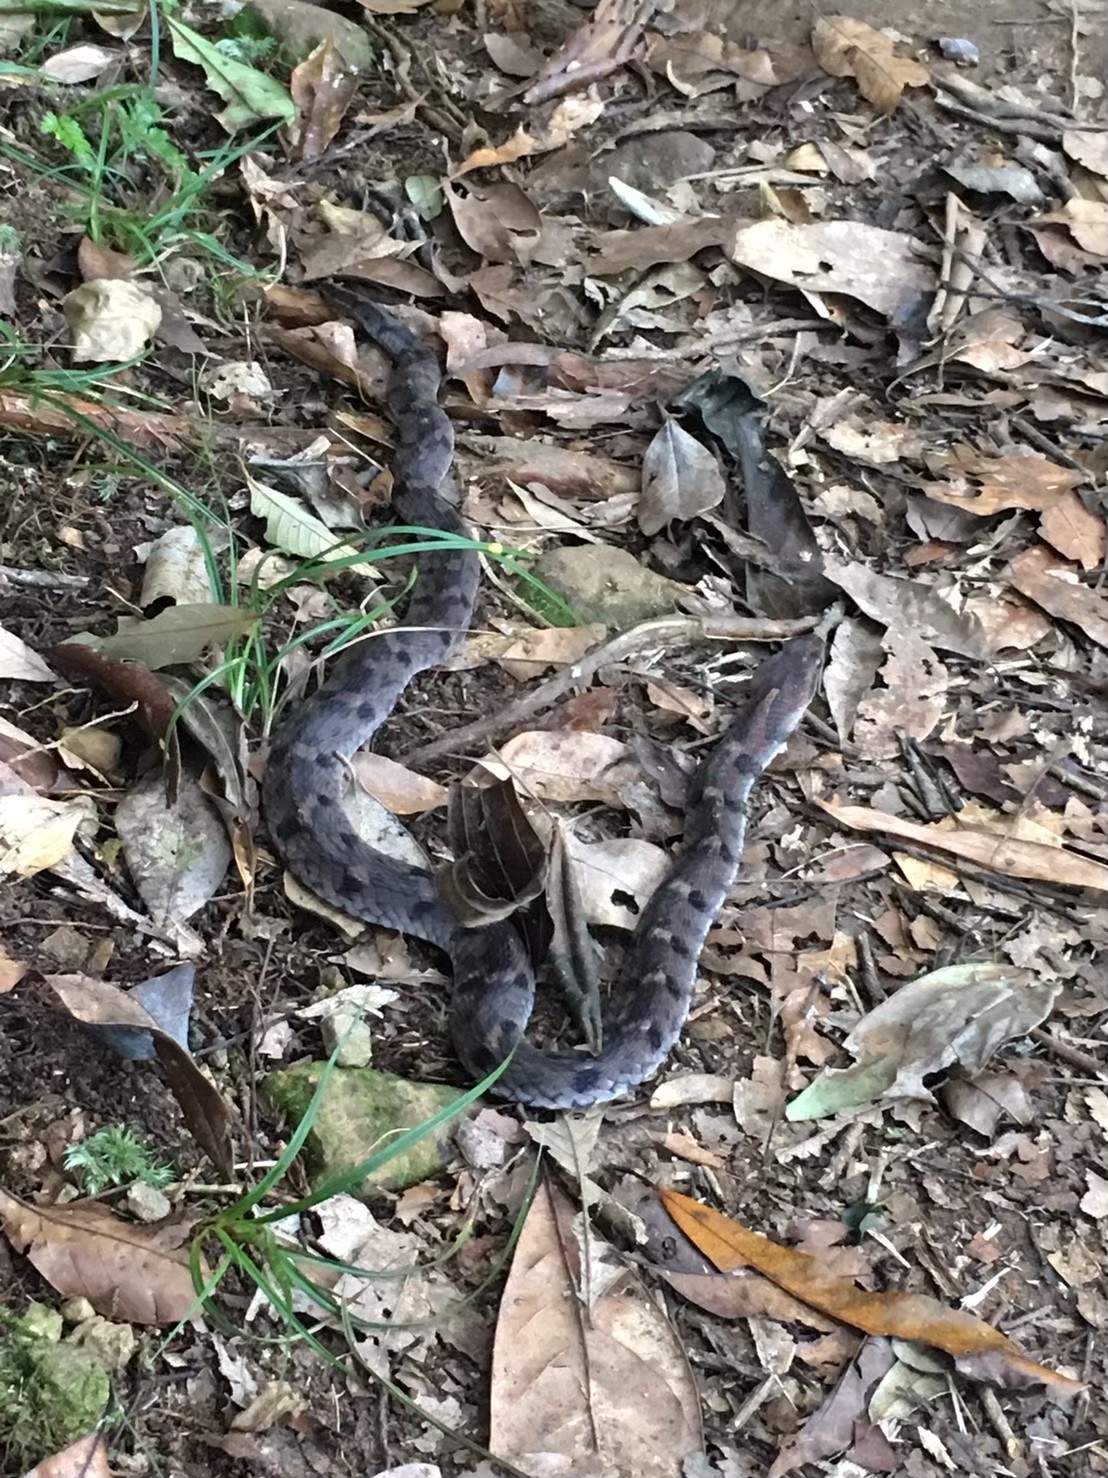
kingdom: Animalia
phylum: Chordata
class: Squamata
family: Colubridae
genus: Pseudoxenodon
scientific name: Pseudoxenodon stejnegeri
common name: Stejneger's bamboo snake
